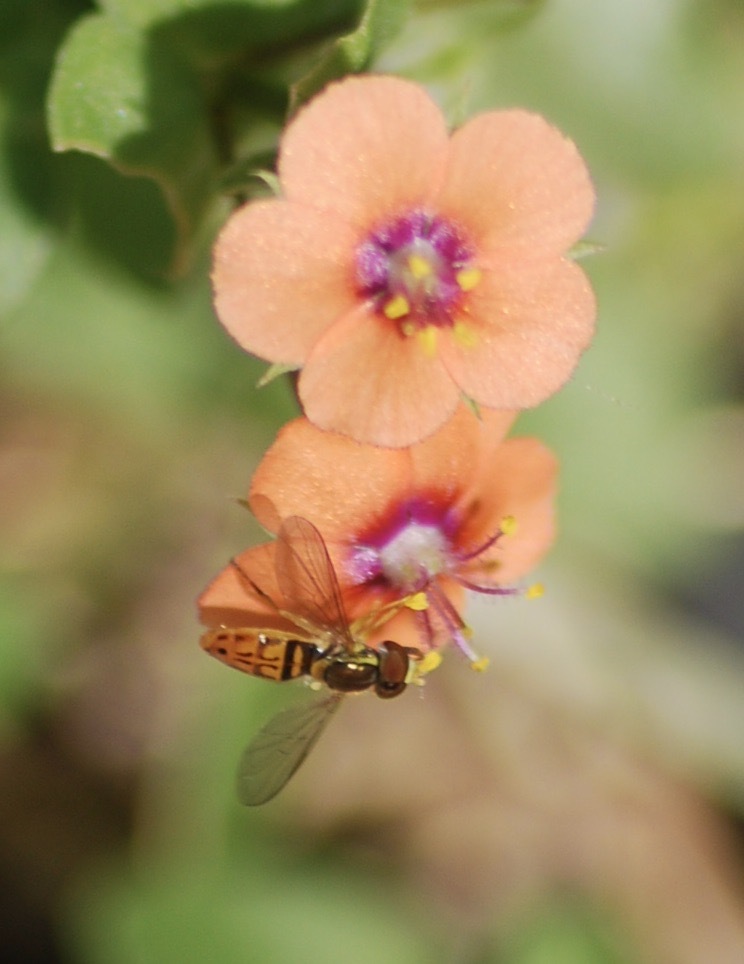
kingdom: Plantae
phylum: Tracheophyta
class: Magnoliopsida
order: Ericales
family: Primulaceae
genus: Lysimachia
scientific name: Lysimachia arvensis
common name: Scarlet pimpernel
